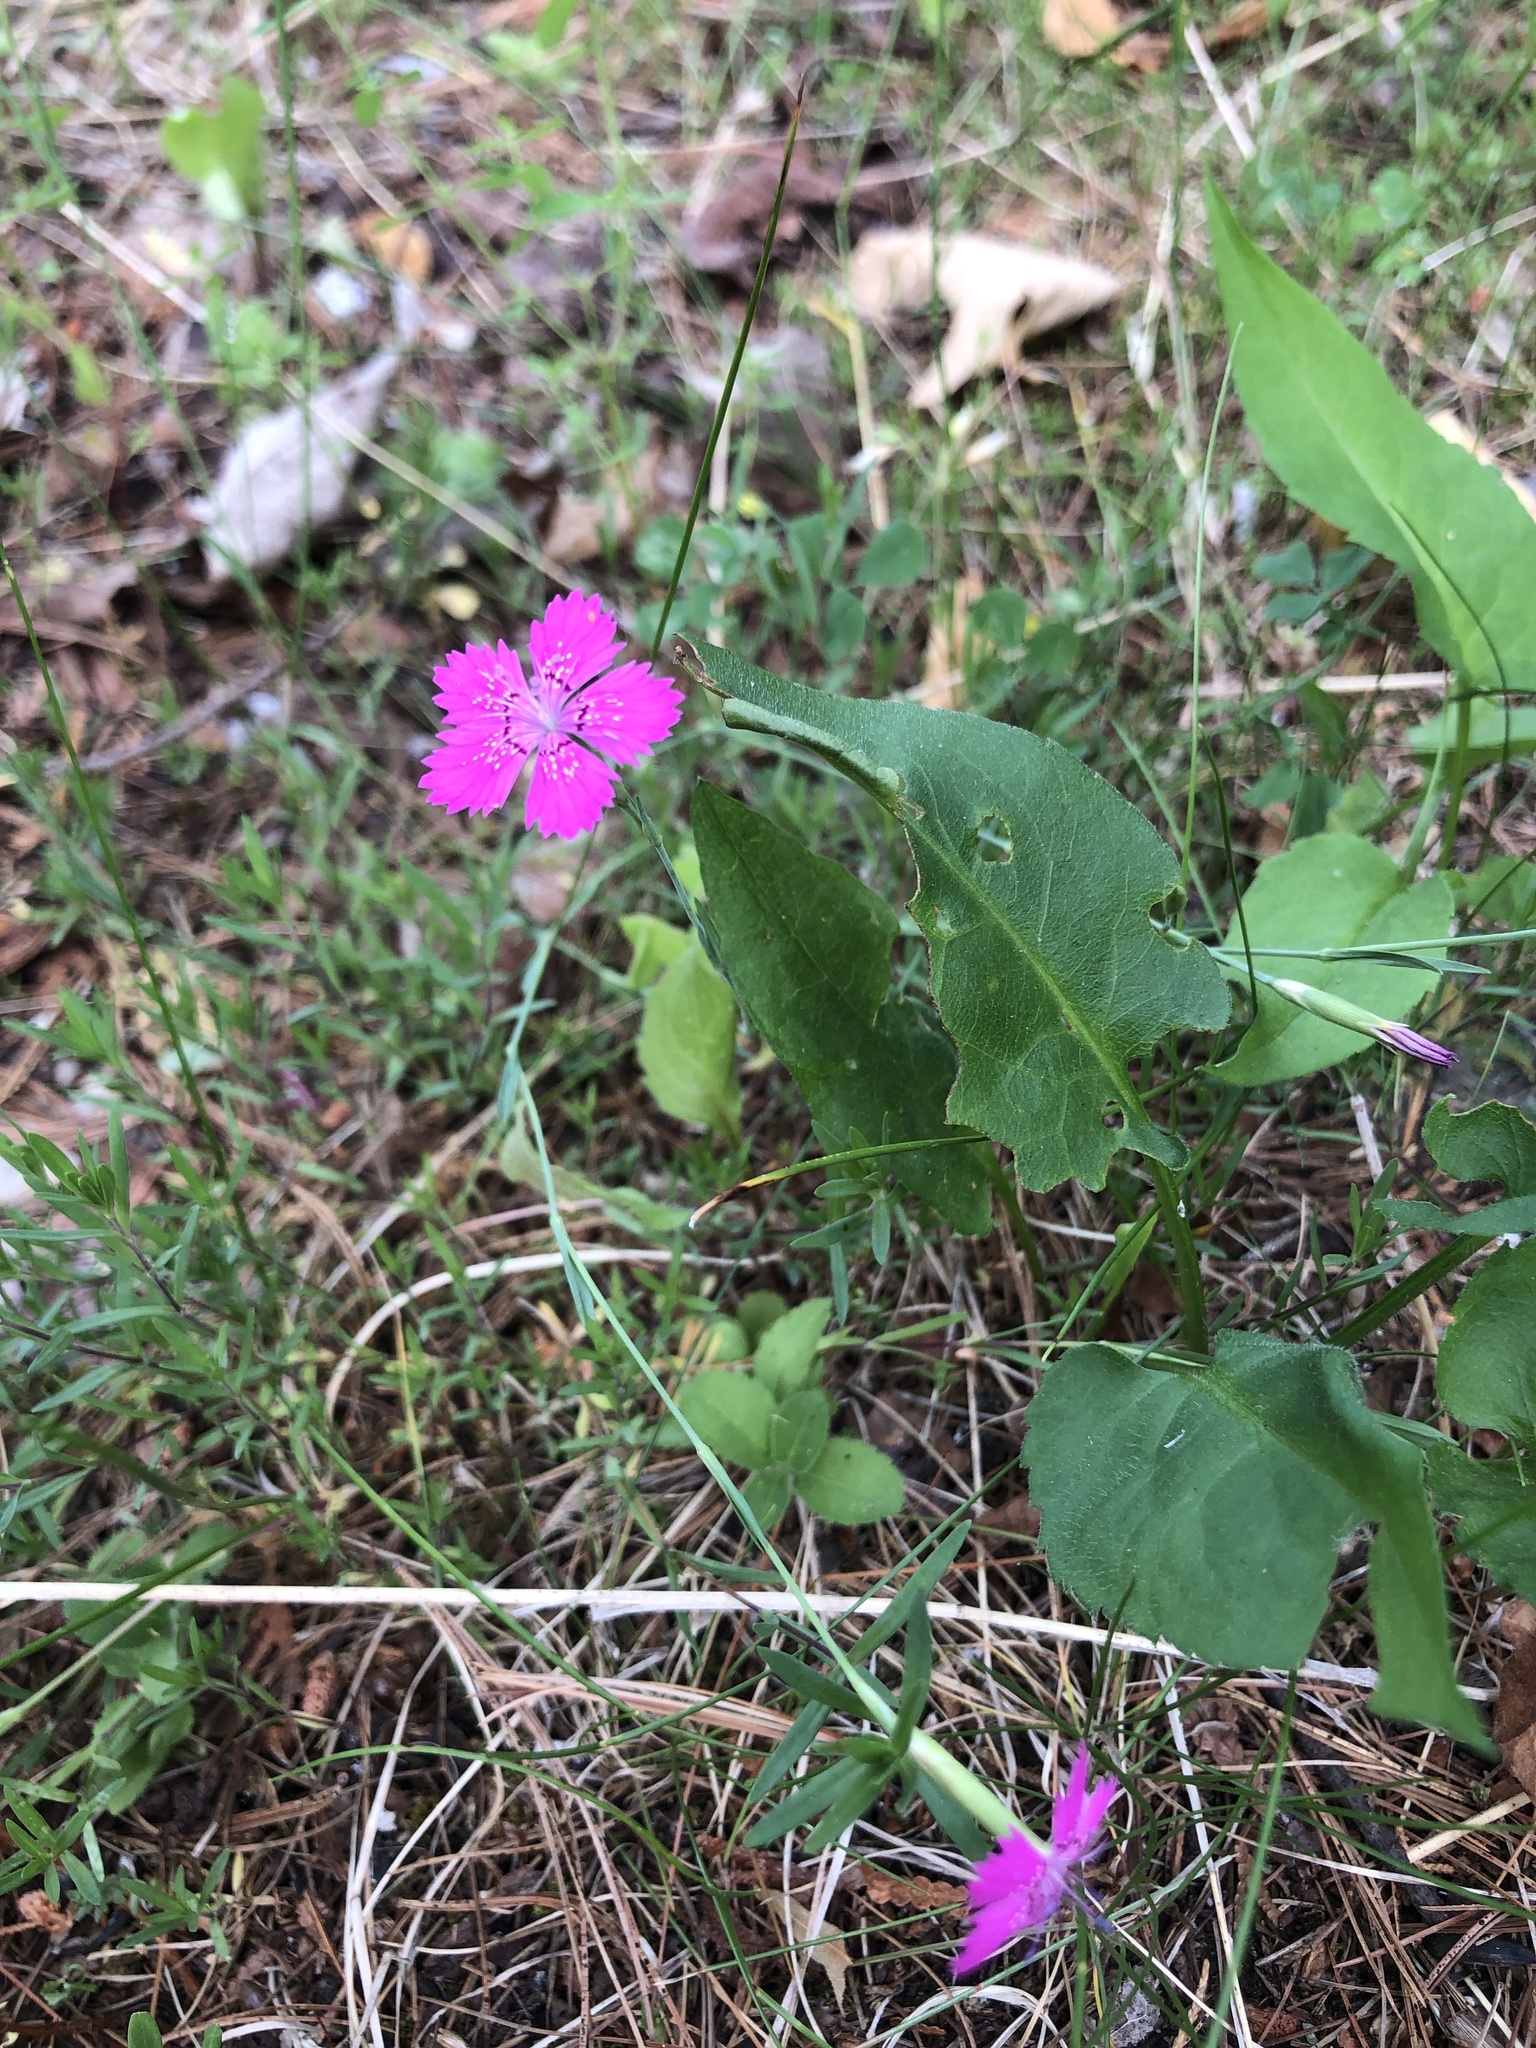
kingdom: Plantae
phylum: Tracheophyta
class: Magnoliopsida
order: Caryophyllales
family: Caryophyllaceae
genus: Dianthus
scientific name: Dianthus deltoides
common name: Maiden pink
